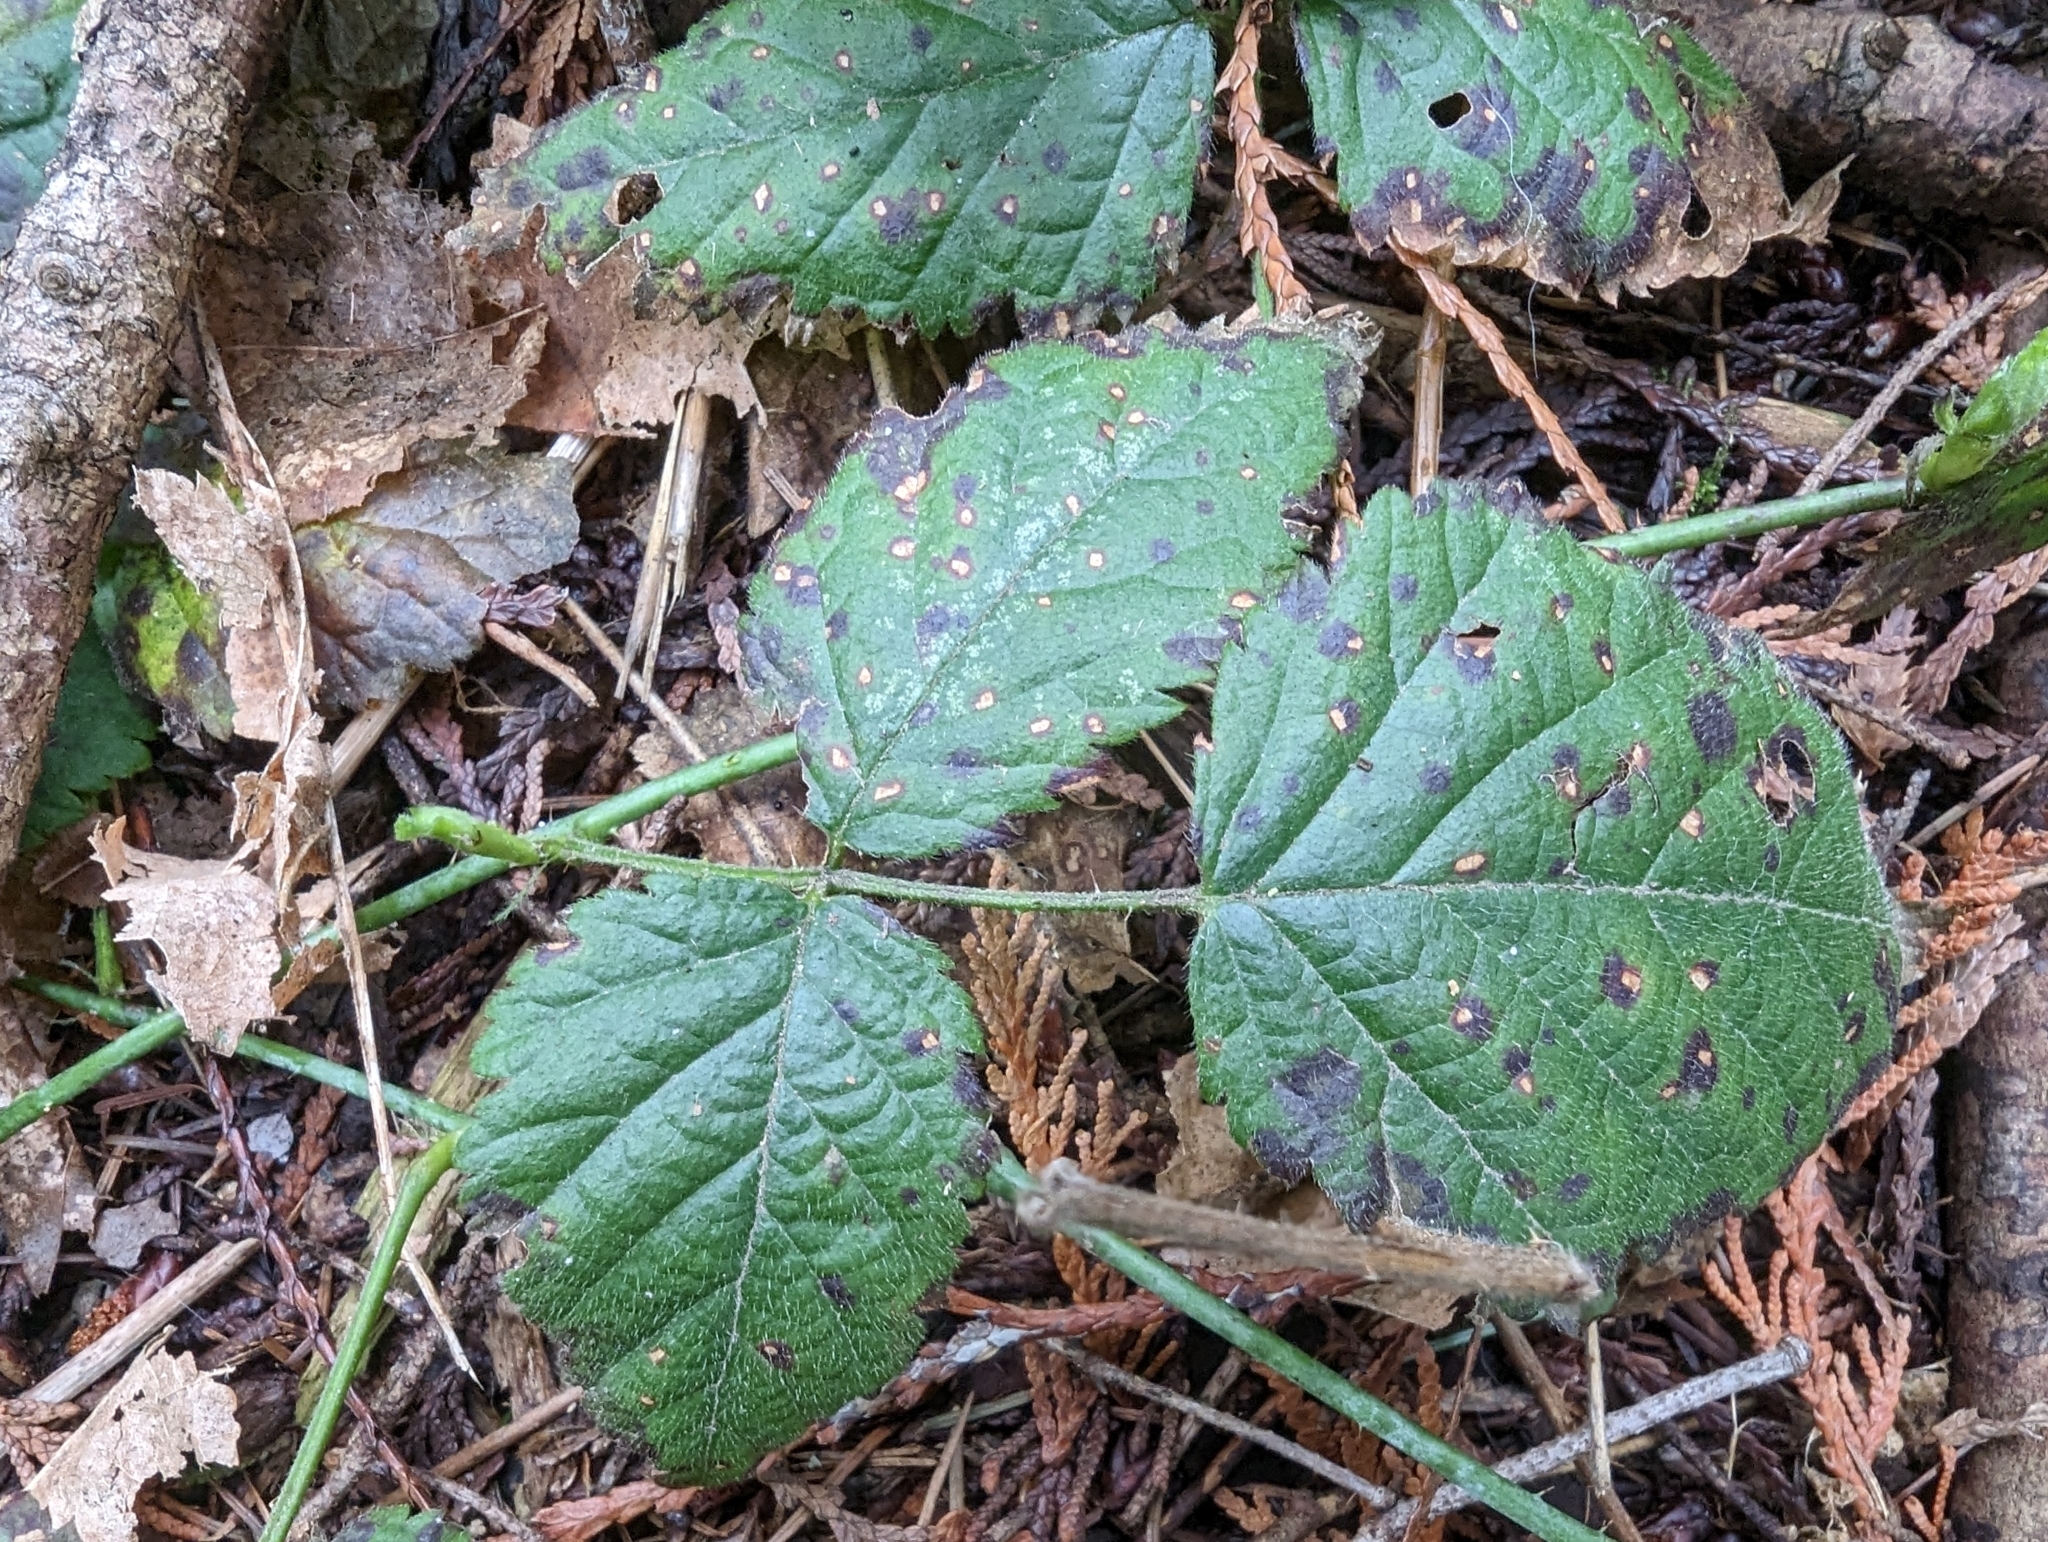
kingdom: Plantae
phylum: Tracheophyta
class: Magnoliopsida
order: Rosales
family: Rosaceae
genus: Rubus
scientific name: Rubus ursinus
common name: Pacific blackberry
